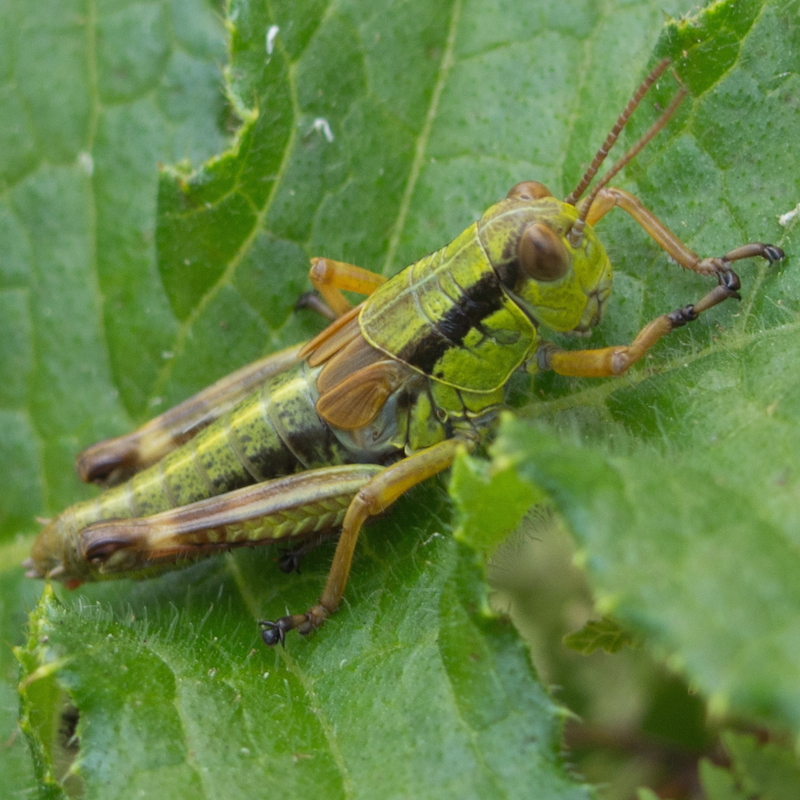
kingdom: Animalia
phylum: Arthropoda
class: Insecta
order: Orthoptera
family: Acrididae
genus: Miramella
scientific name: Miramella irena
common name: Long-winged mountain grasshopper
